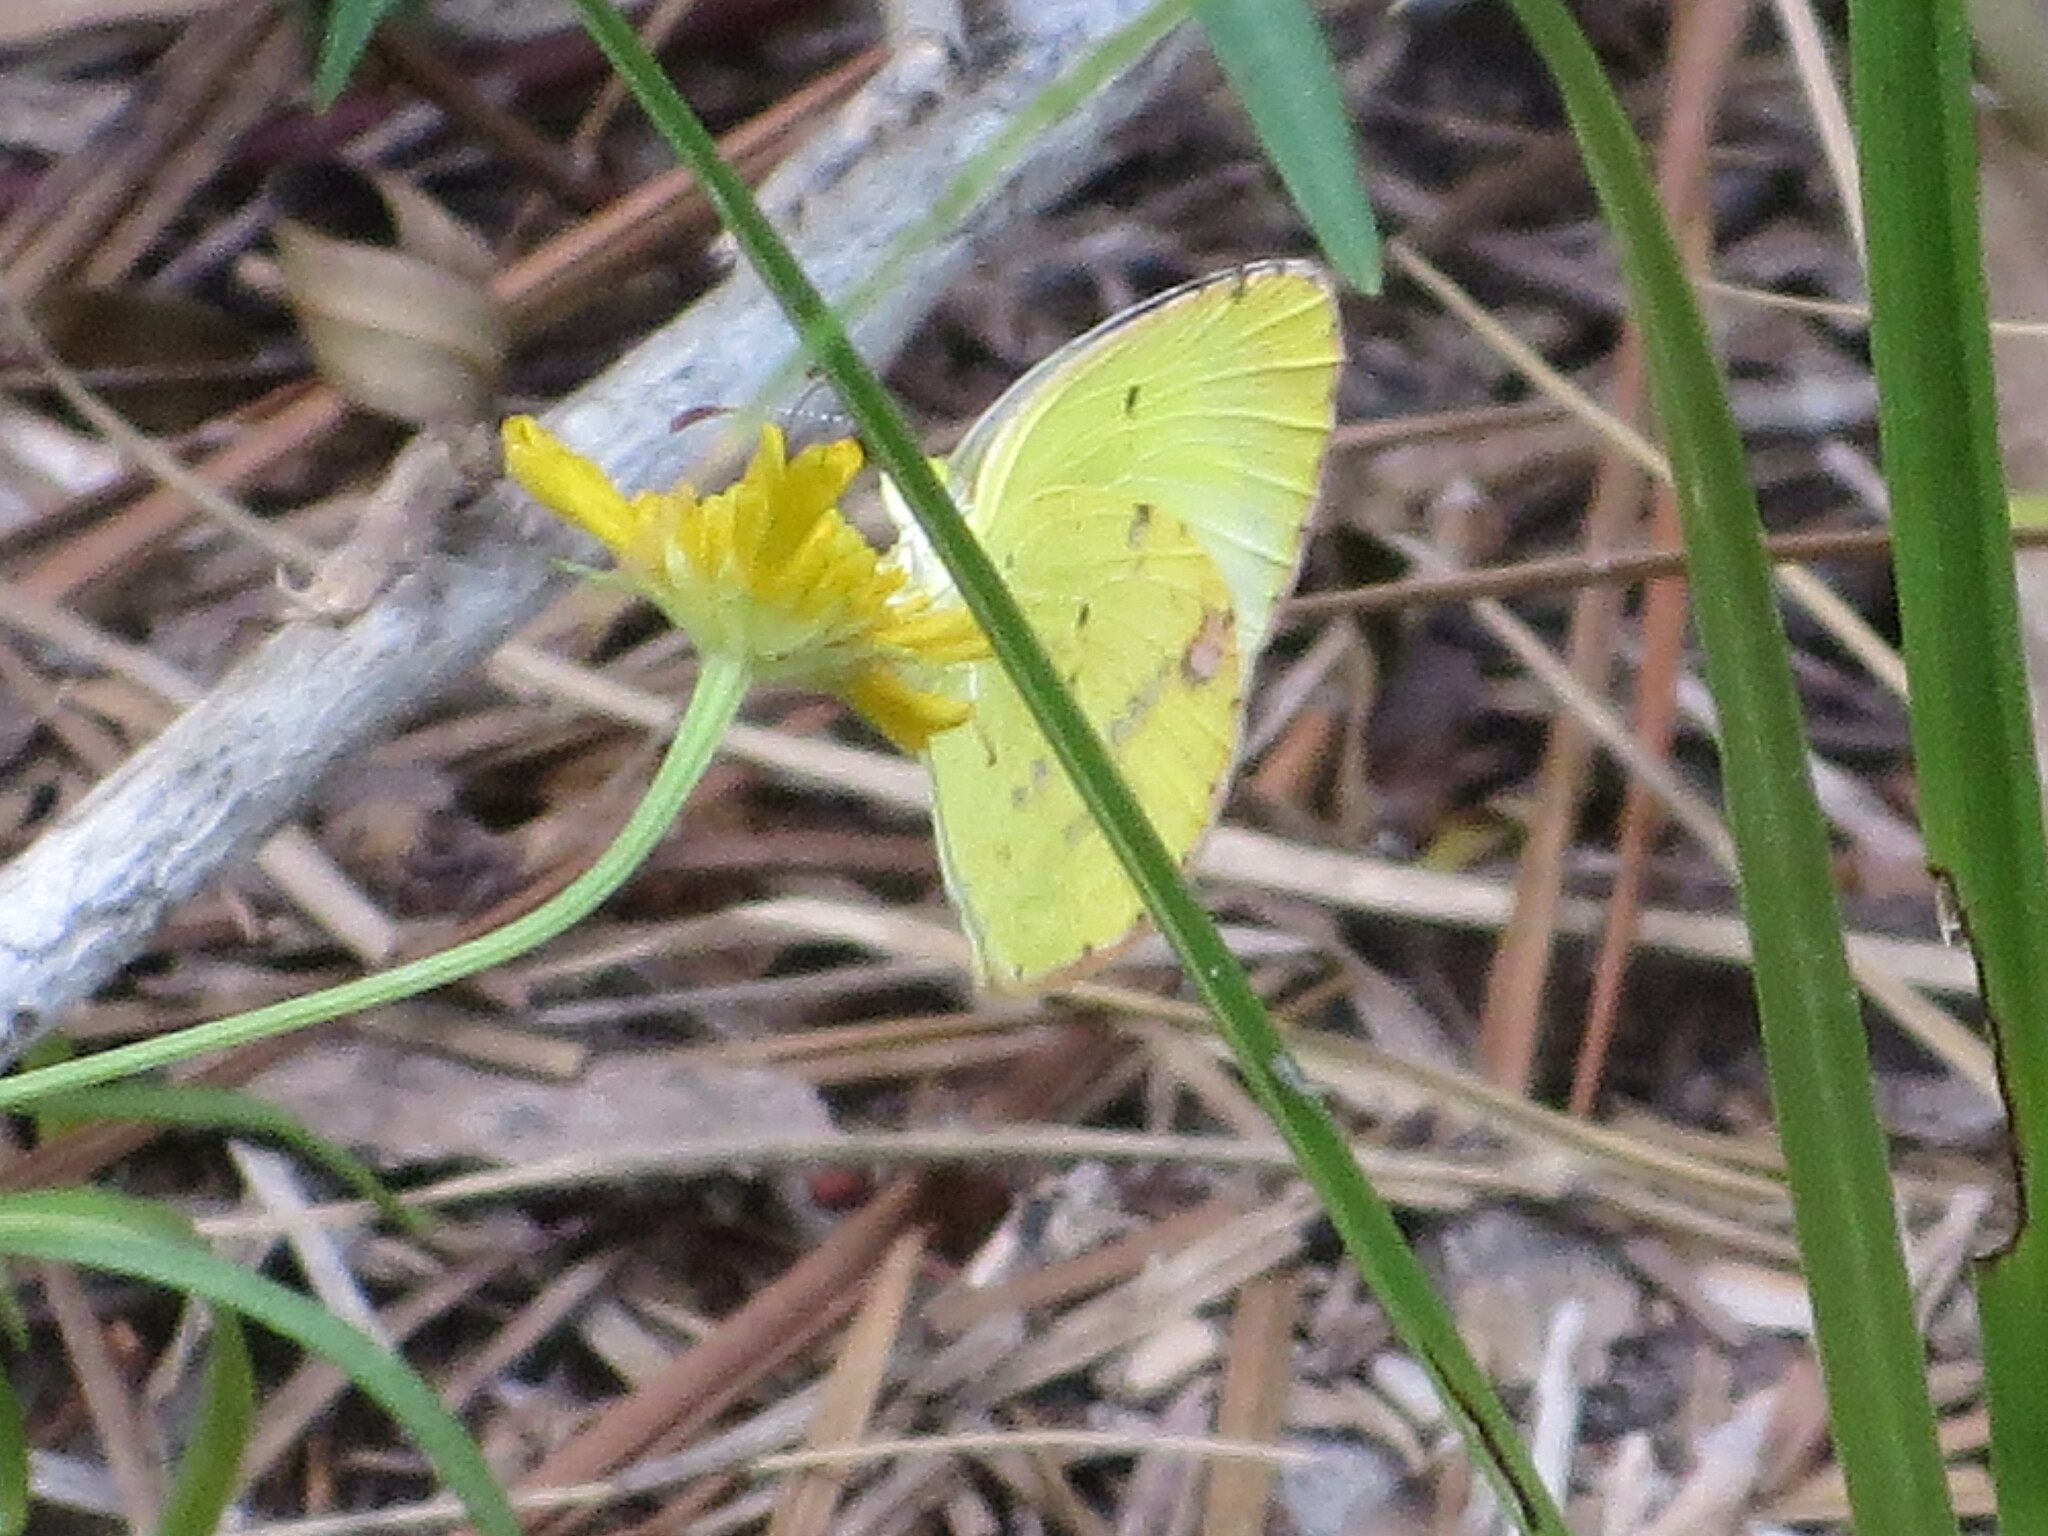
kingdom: Animalia
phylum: Arthropoda
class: Insecta
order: Lepidoptera
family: Pieridae
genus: Pyrisitia
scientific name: Pyrisitia lisa
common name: Little yellow
